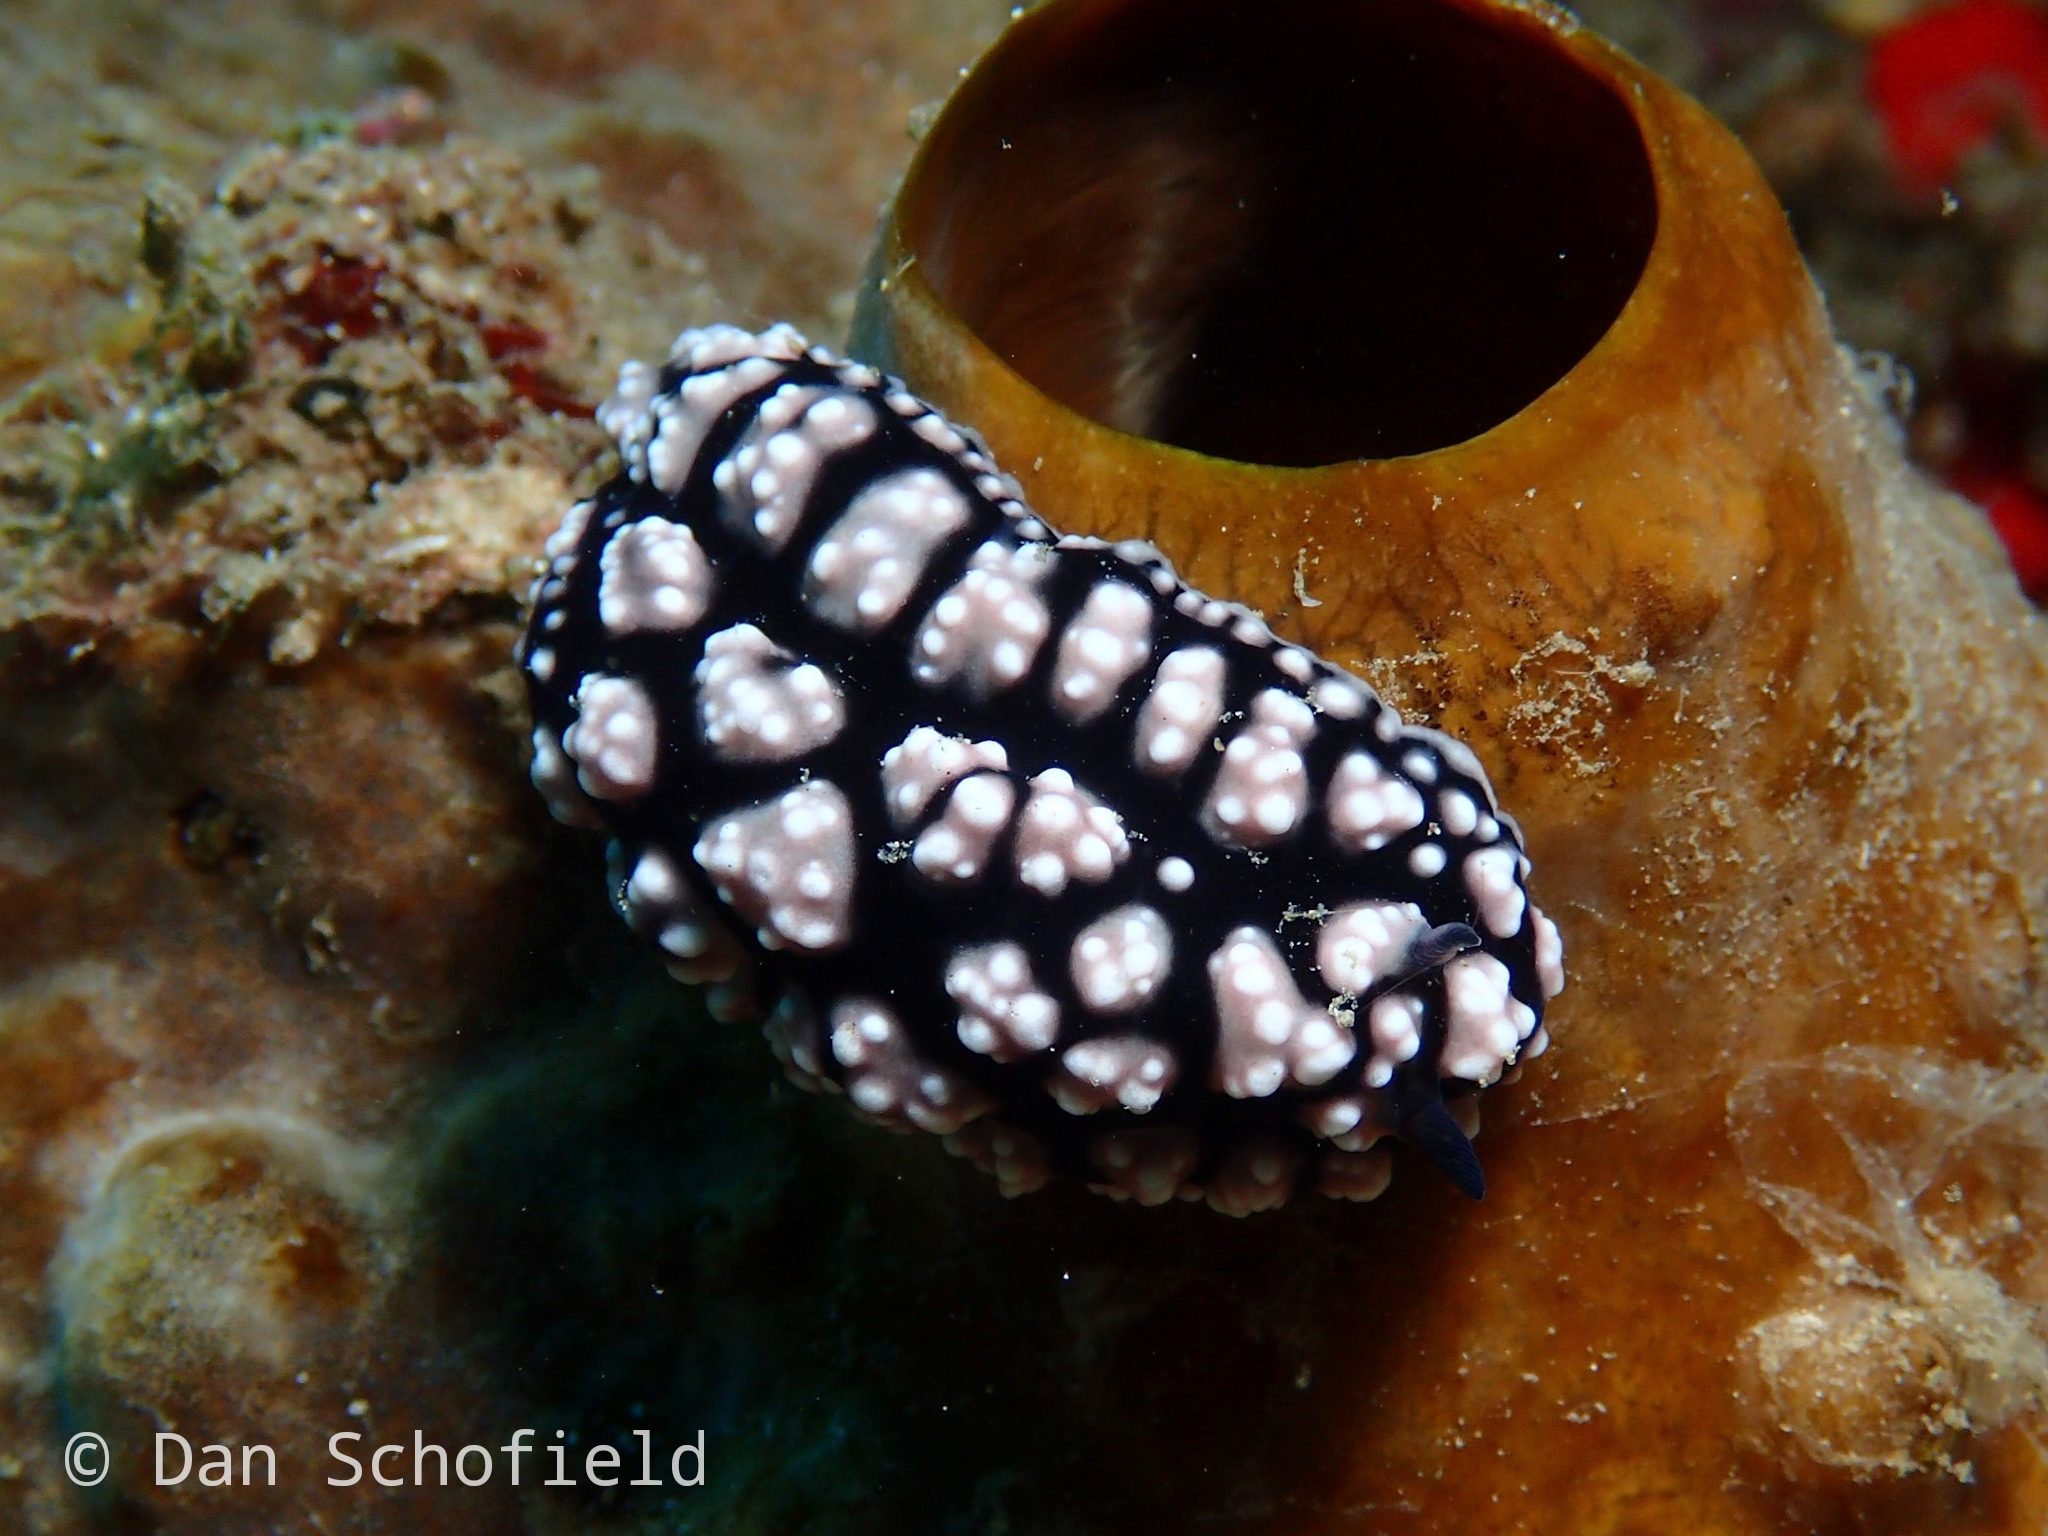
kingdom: Animalia
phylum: Mollusca
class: Gastropoda
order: Nudibranchia
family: Phyllidiidae
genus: Phyllidiella
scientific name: Phyllidiella pustulosa
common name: Pustular phyllidia
